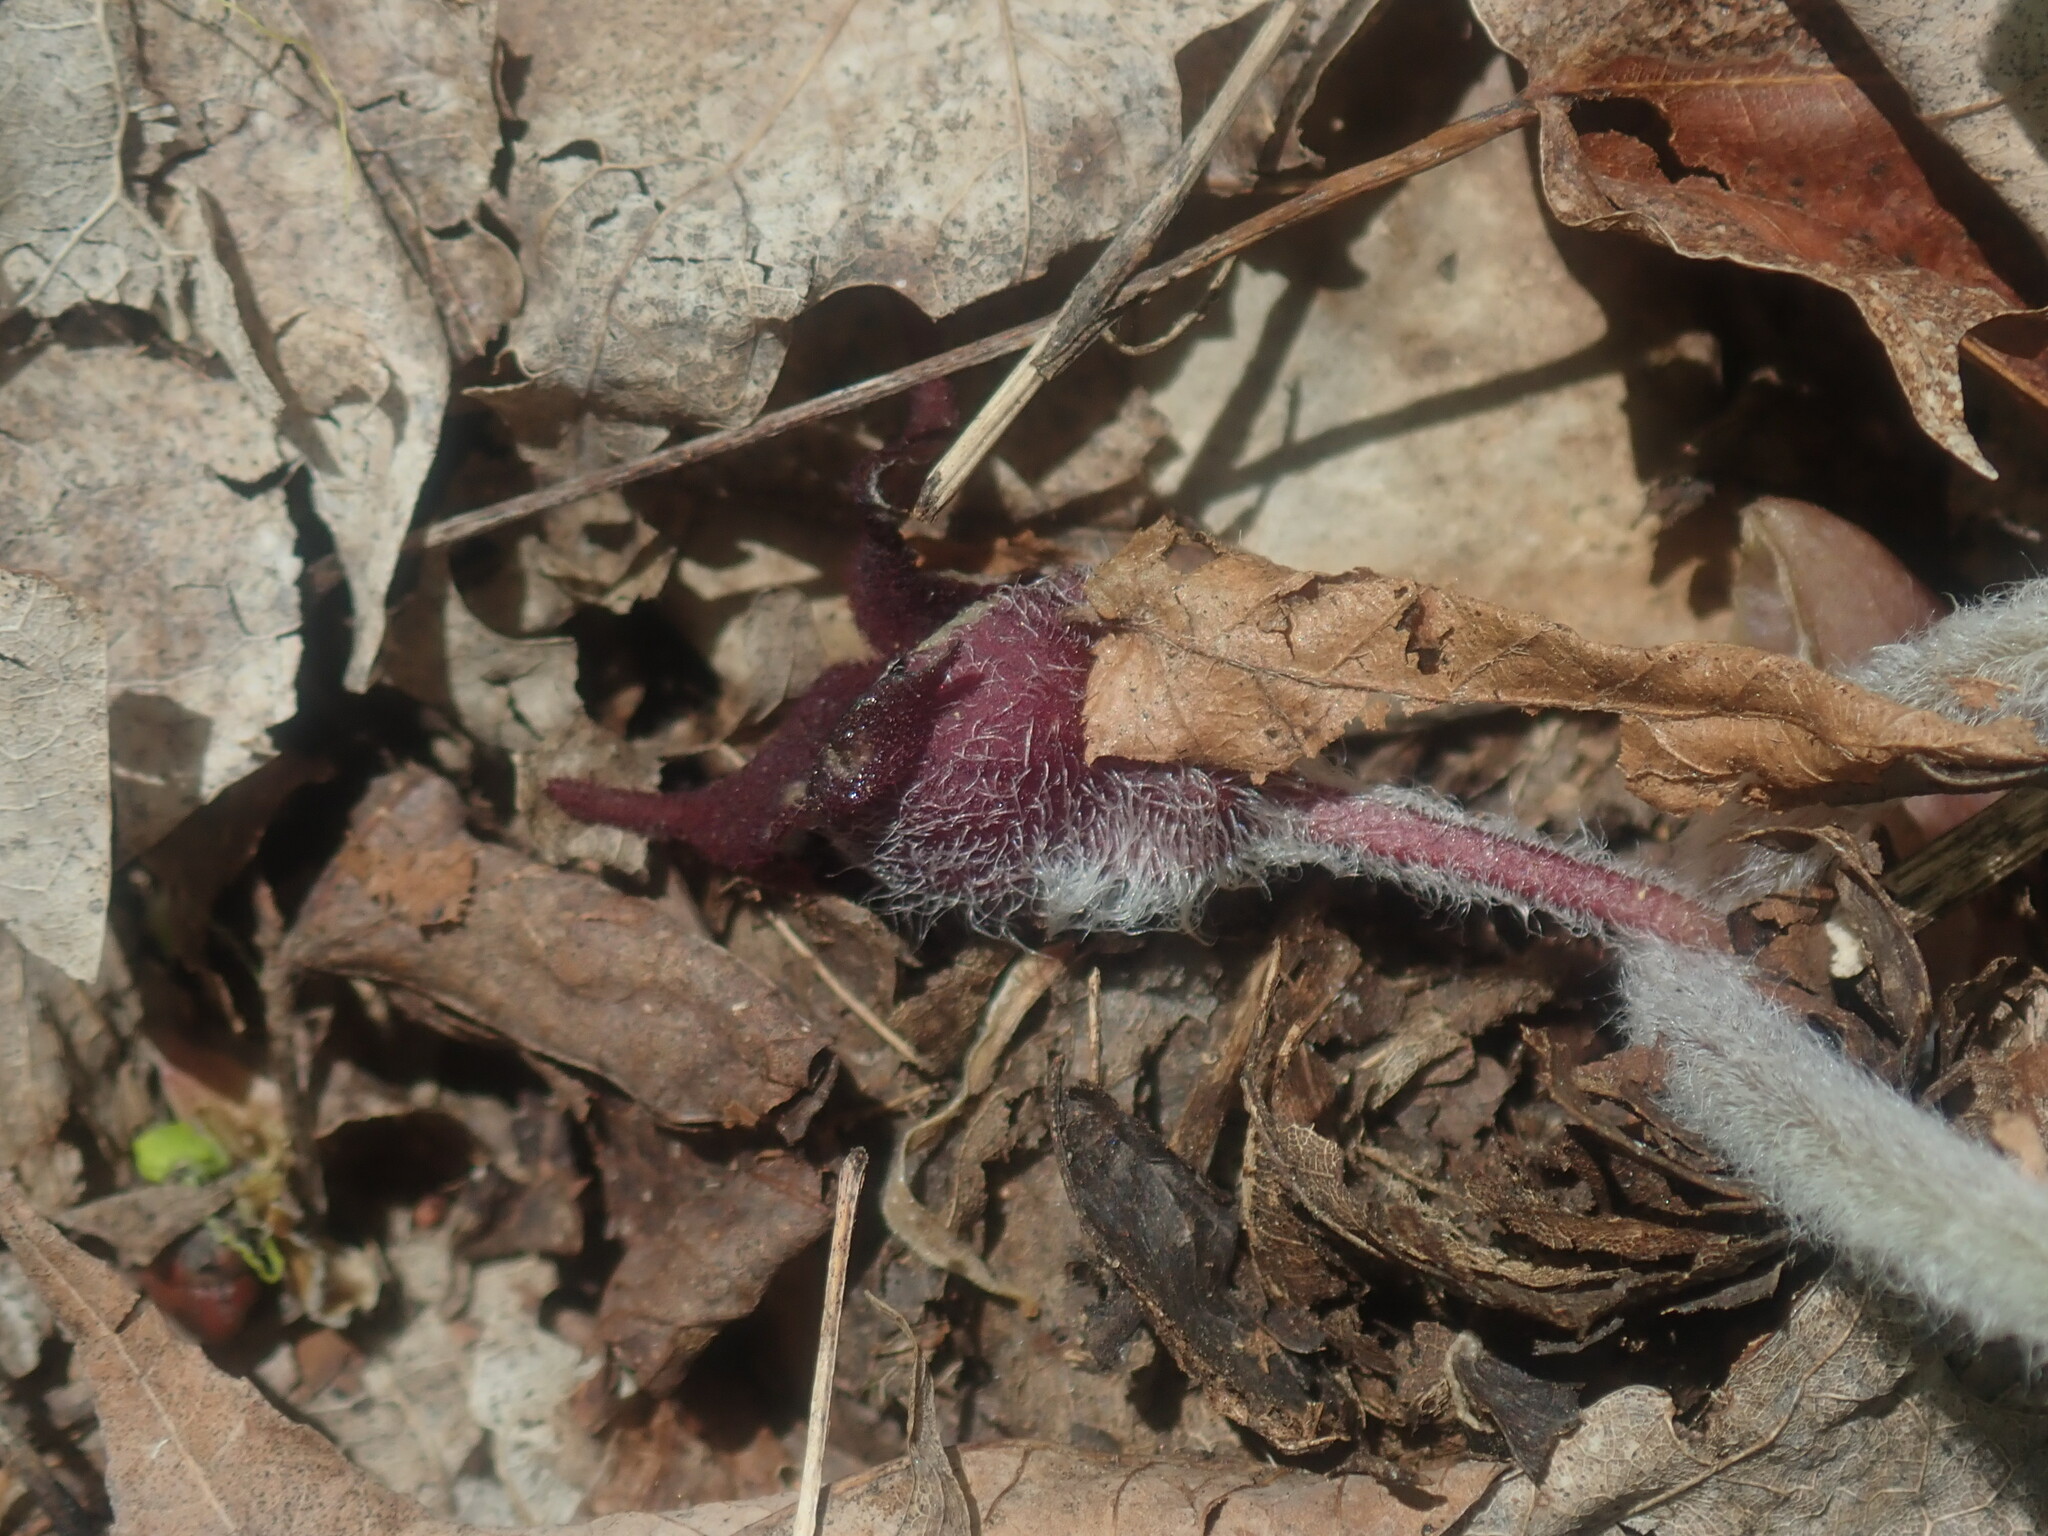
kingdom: Plantae
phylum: Tracheophyta
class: Magnoliopsida
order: Piperales
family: Aristolochiaceae
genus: Asarum
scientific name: Asarum canadense
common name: Wild ginger
